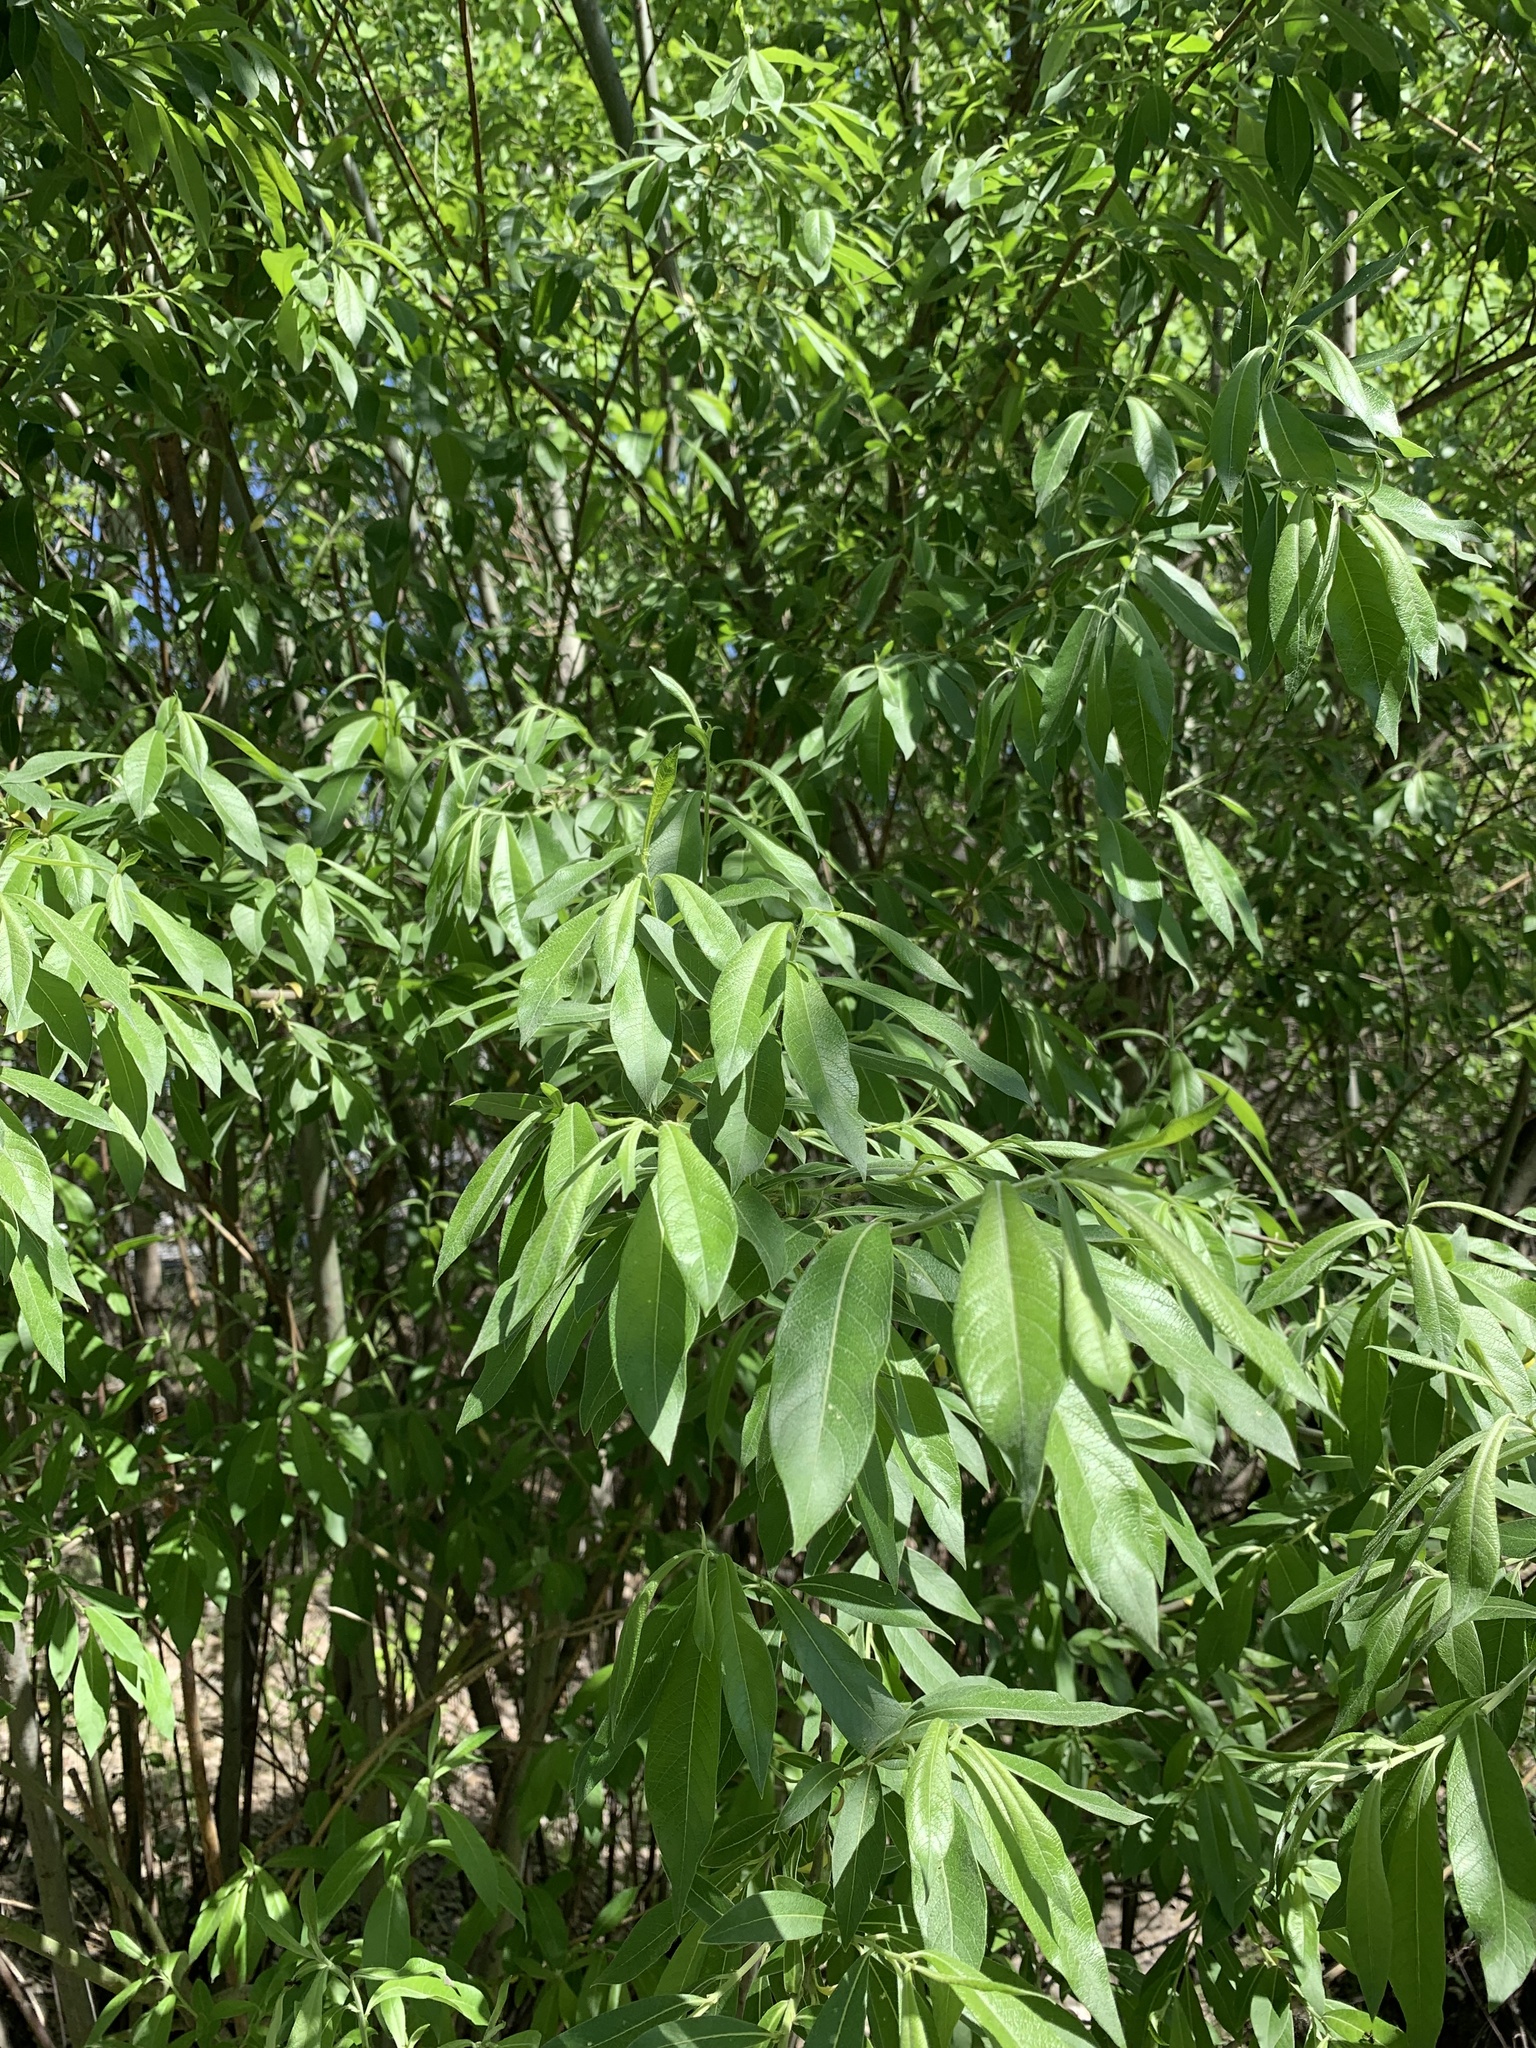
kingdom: Plantae
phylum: Tracheophyta
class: Magnoliopsida
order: Malpighiales
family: Salicaceae
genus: Salix
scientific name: Salix gmelinii
